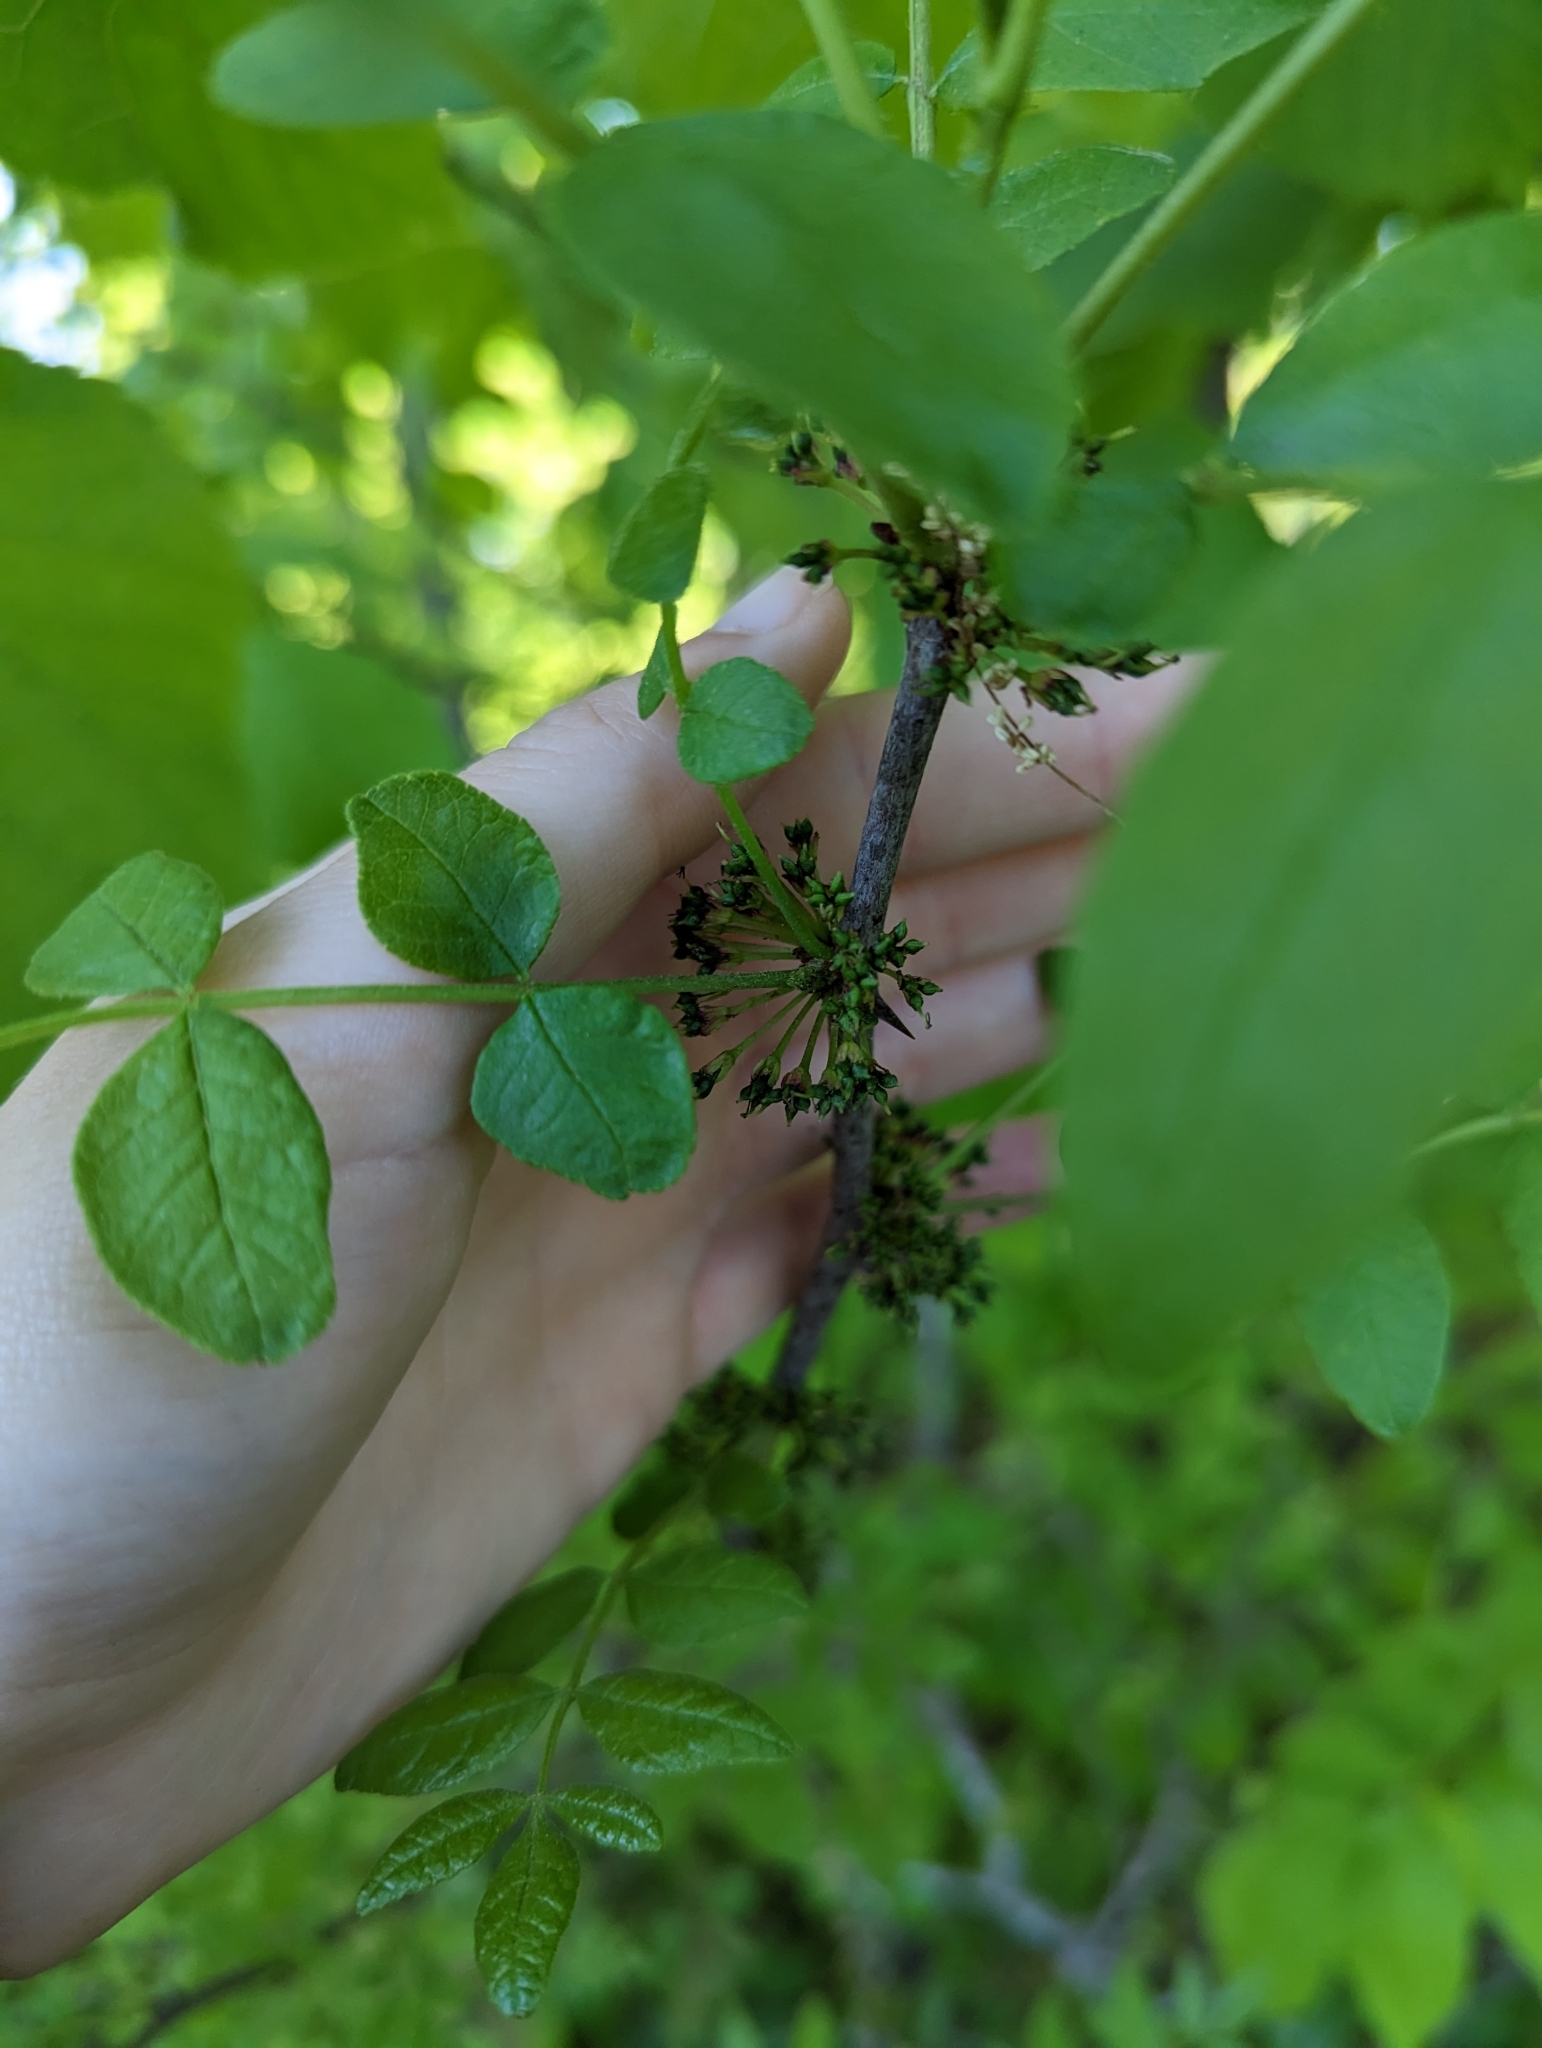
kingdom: Plantae
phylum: Tracheophyta
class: Magnoliopsida
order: Sapindales
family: Rutaceae
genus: Zanthoxylum
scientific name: Zanthoxylum americanum
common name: Northern prickly-ash
